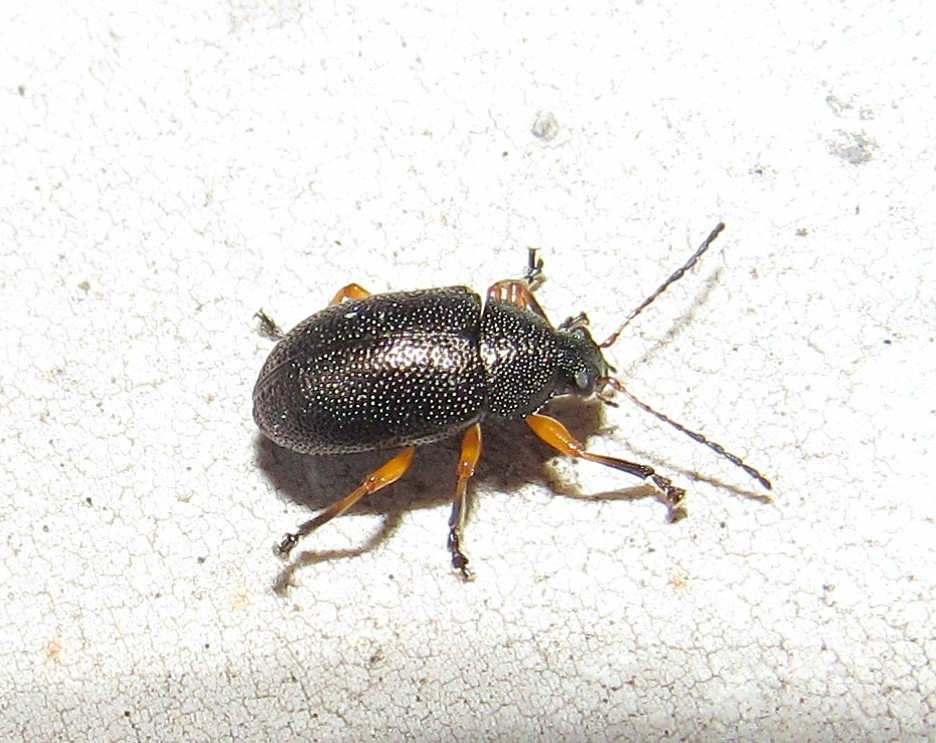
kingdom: Animalia
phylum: Arthropoda
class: Insecta
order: Coleoptera
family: Chrysomelidae
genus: Nodocolaspis
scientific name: Nodocolaspis
